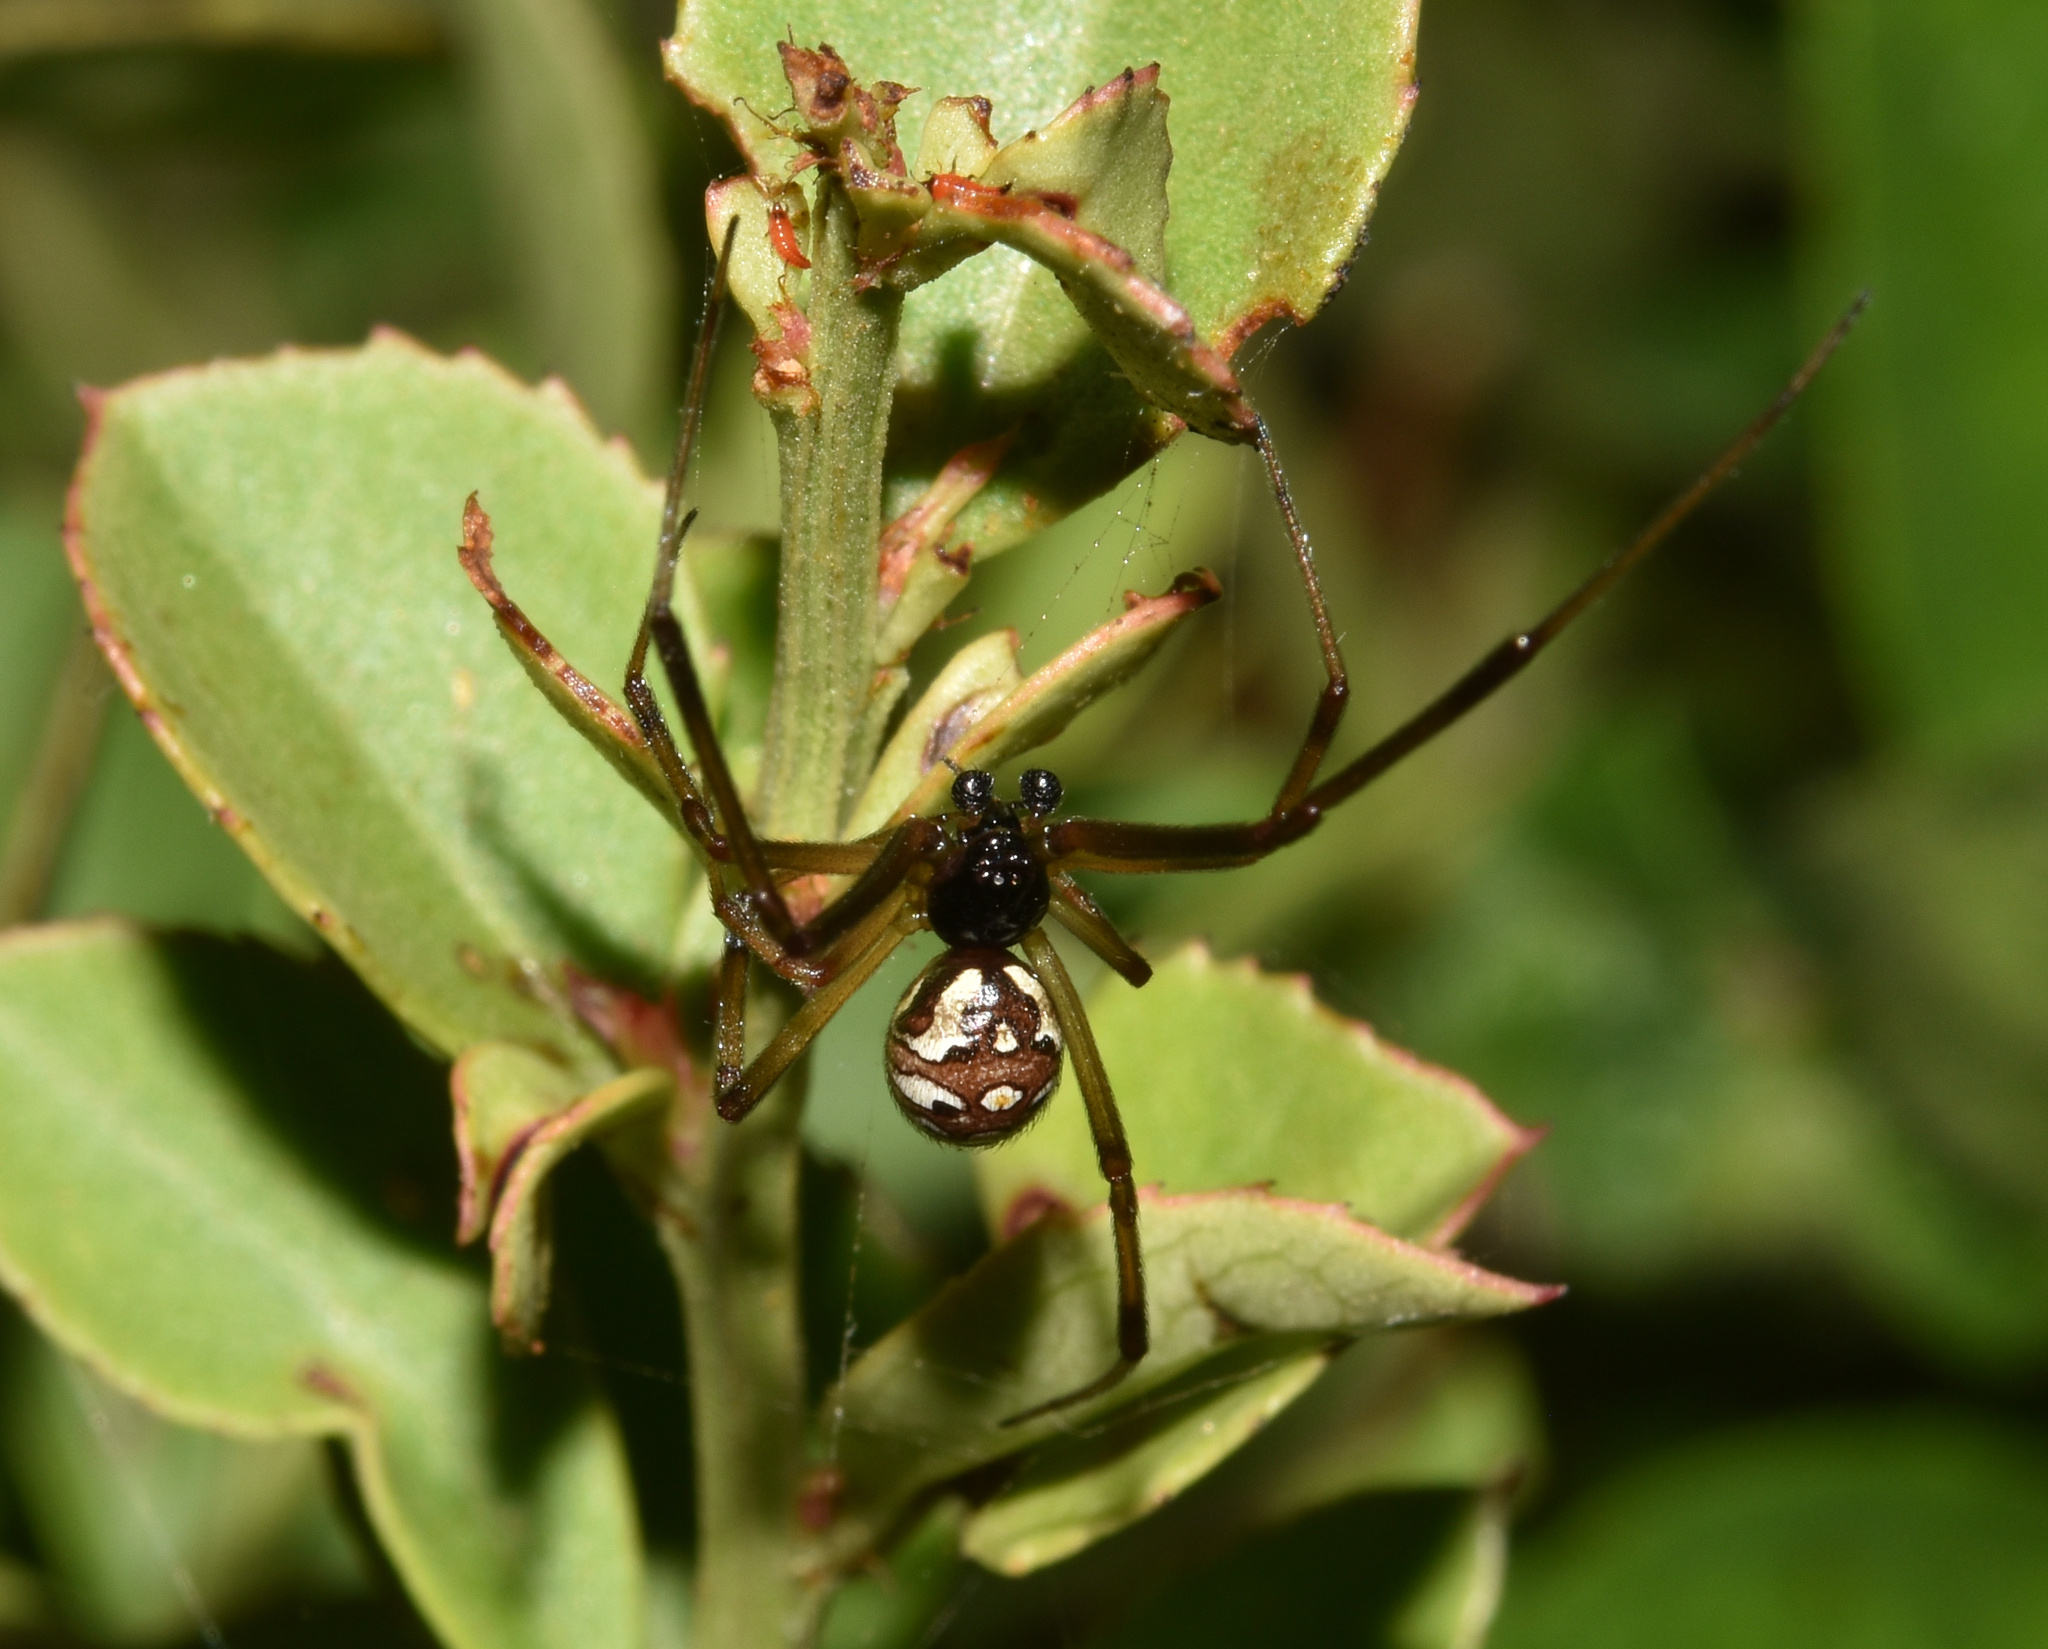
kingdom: Animalia
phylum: Arthropoda
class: Arachnida
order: Araneae
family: Theridiidae
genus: Latrodectus
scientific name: Latrodectus geometricus
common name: Brown widow spider
